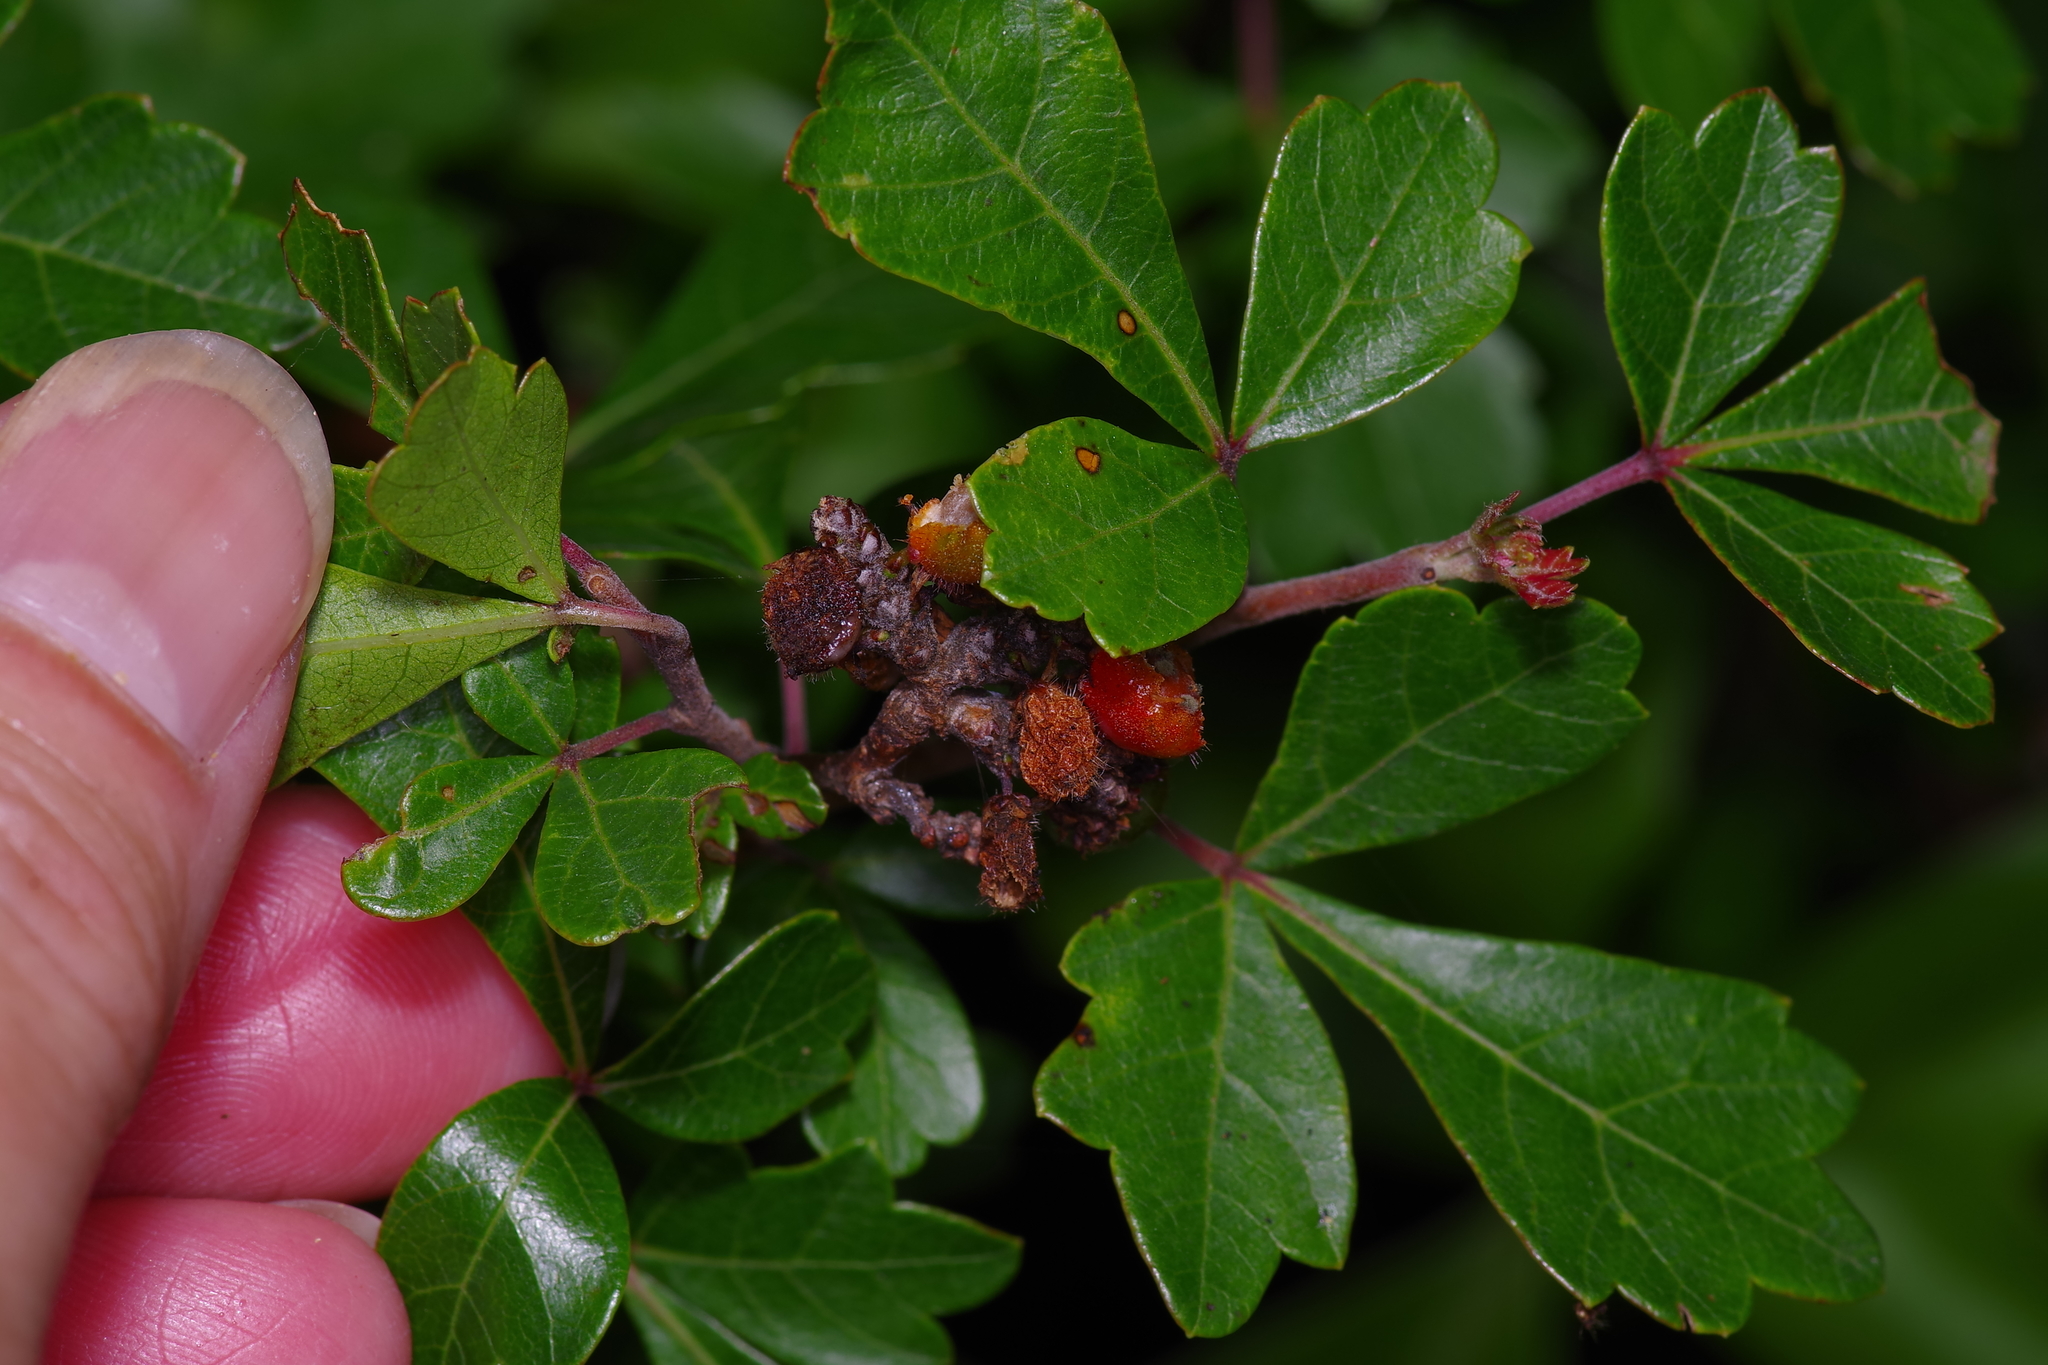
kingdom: Plantae
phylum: Tracheophyta
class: Magnoliopsida
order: Sapindales
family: Anacardiaceae
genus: Rhus
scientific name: Rhus aromatica
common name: Aromatic sumac
